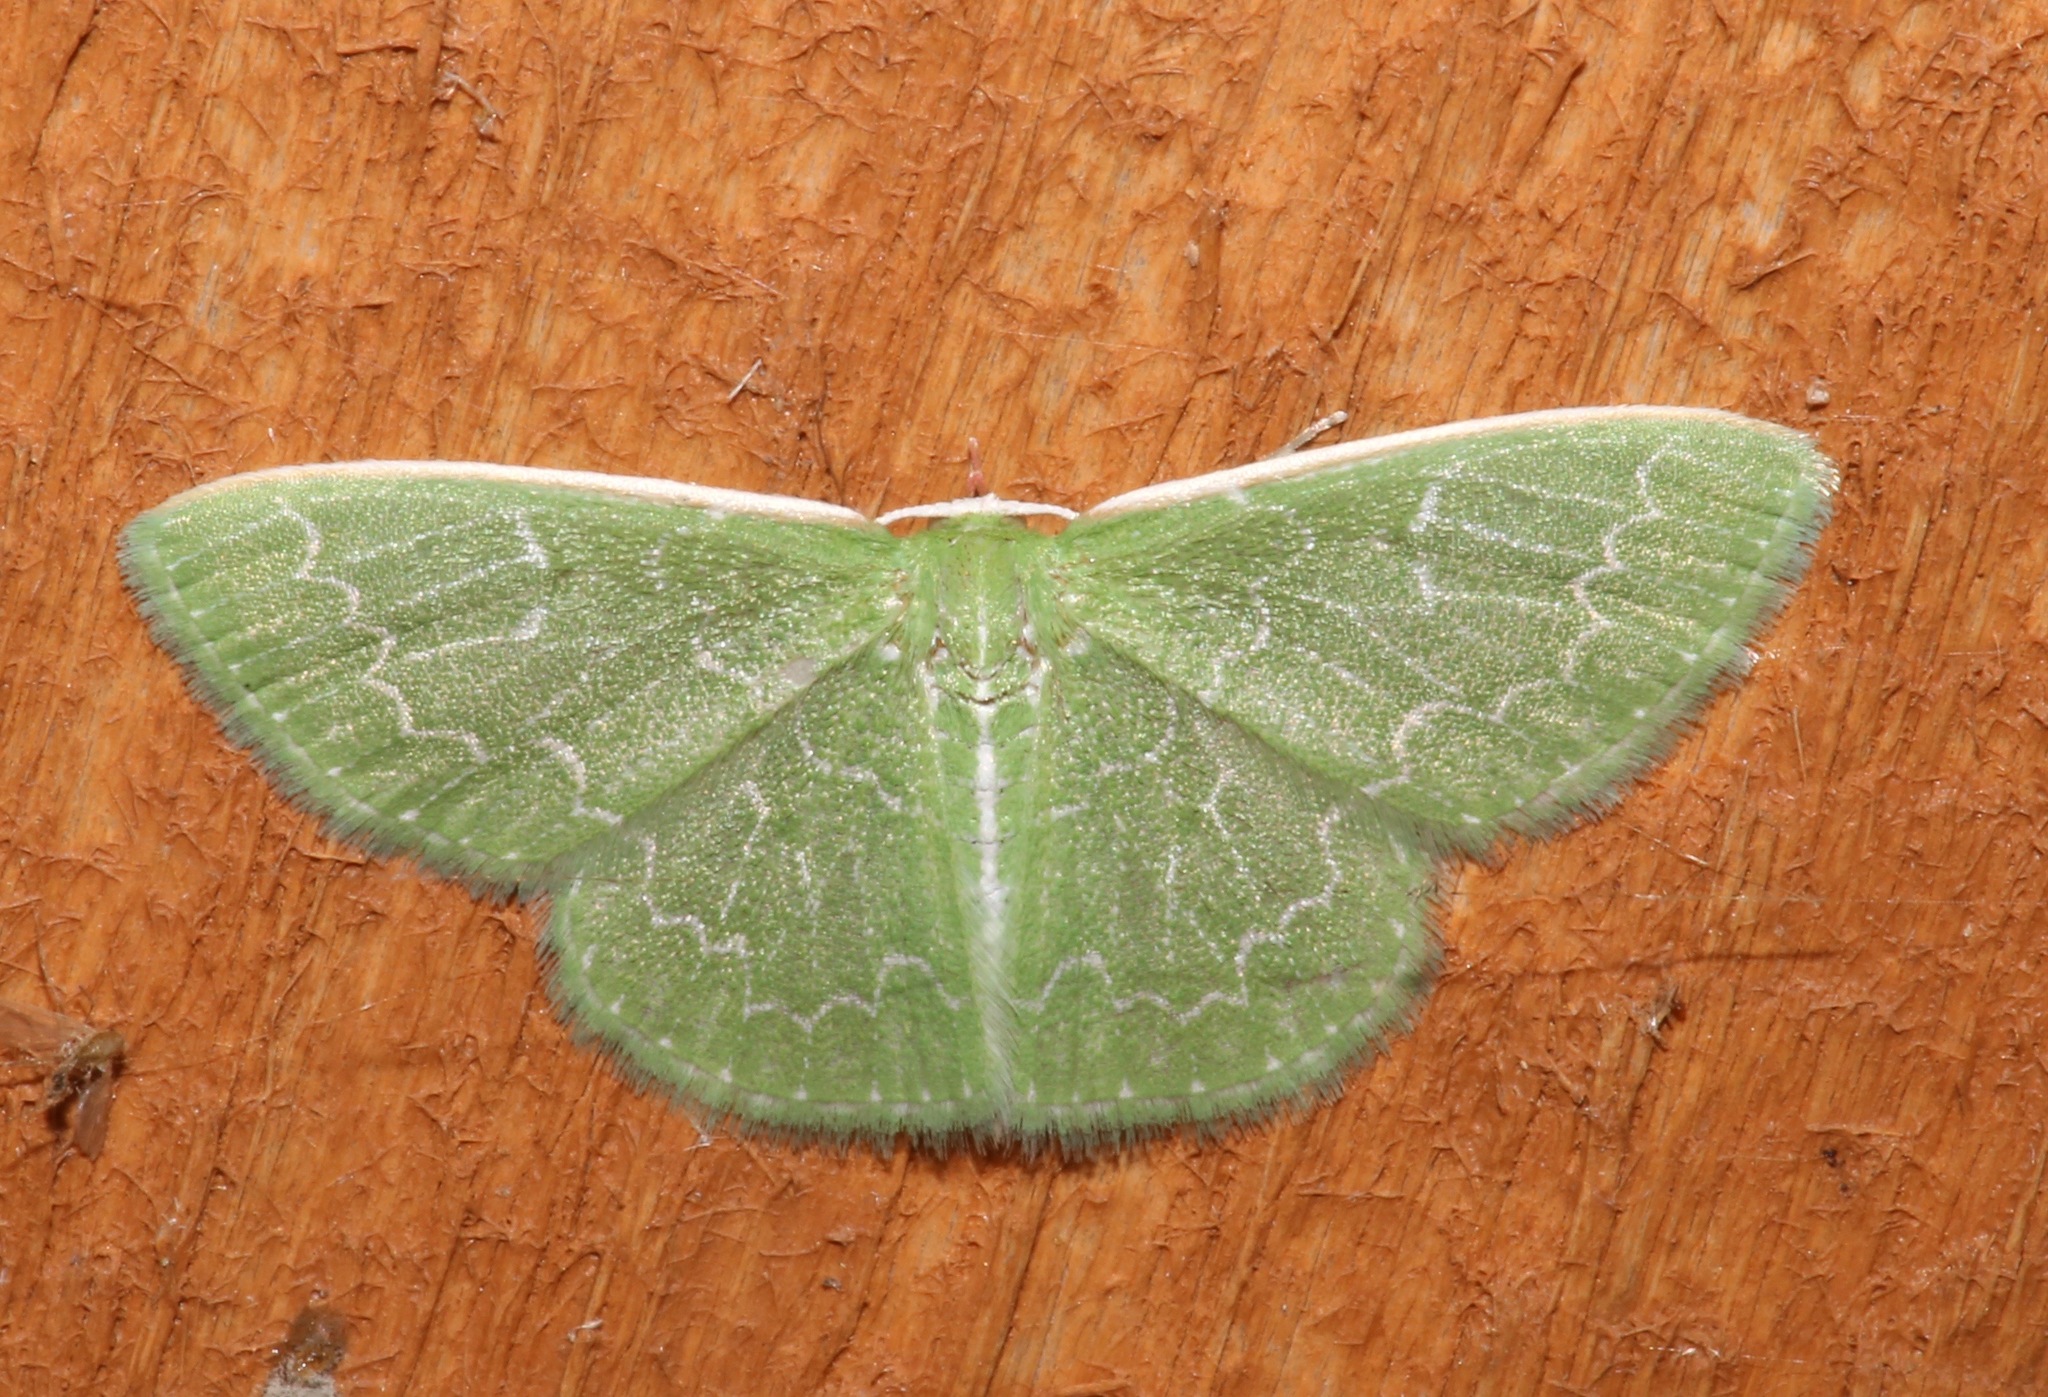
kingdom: Animalia
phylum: Arthropoda
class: Insecta
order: Lepidoptera
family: Geometridae
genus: Synchlora
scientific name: Synchlora frondaria
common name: Southern emerald
